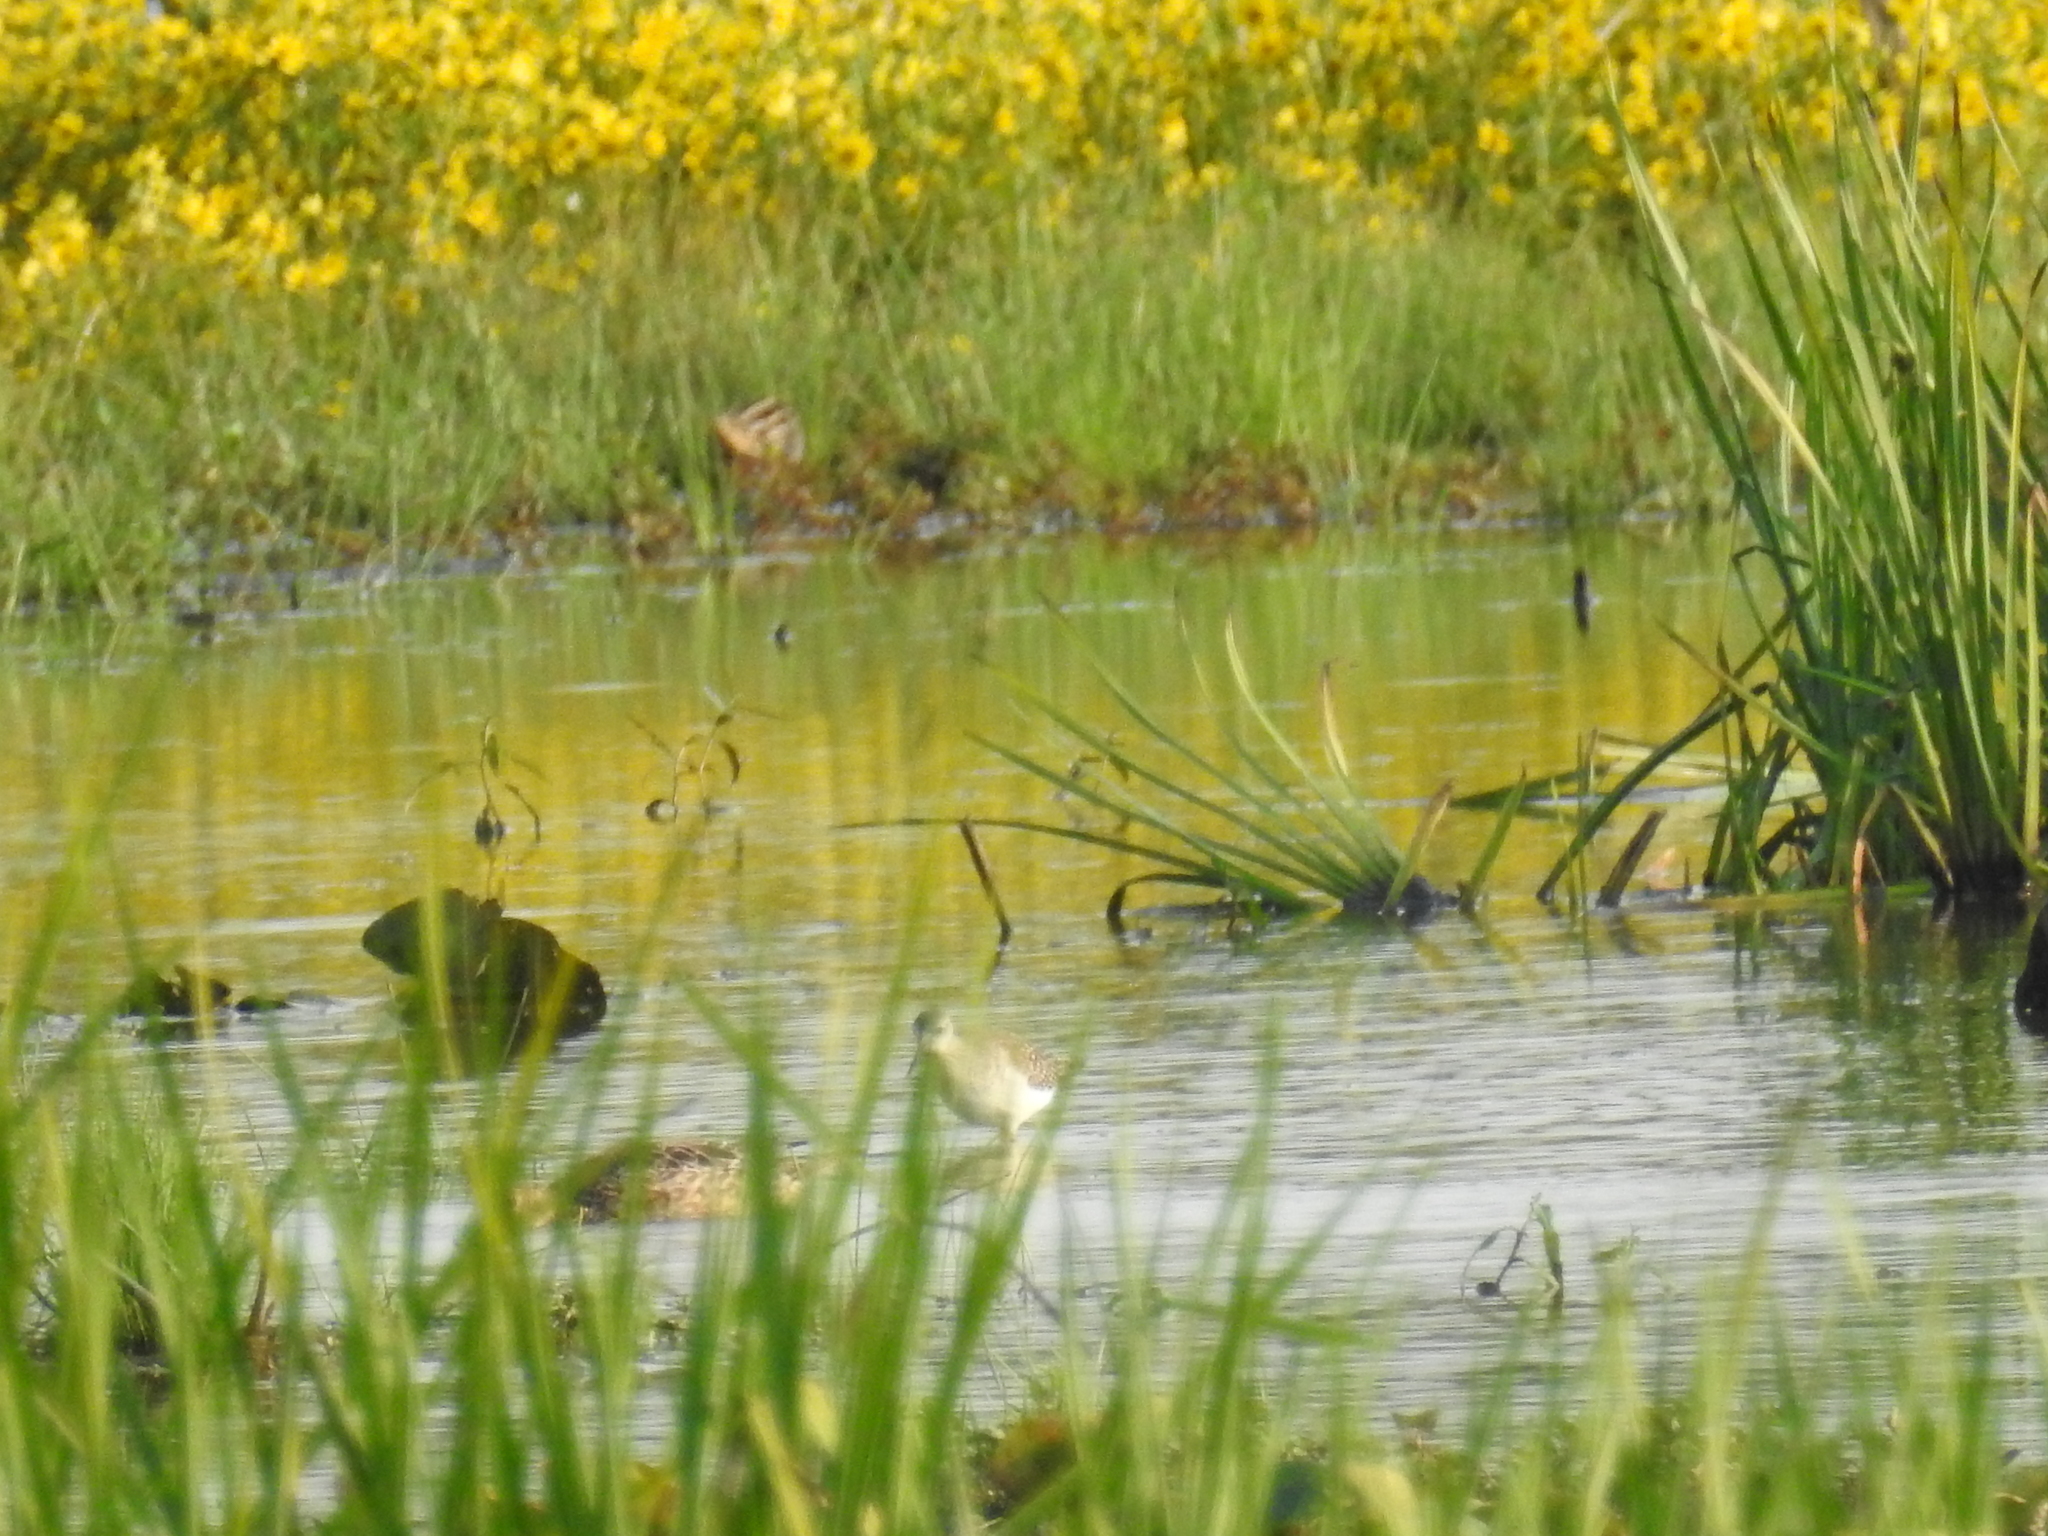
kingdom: Animalia
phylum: Chordata
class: Aves
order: Charadriiformes
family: Scolopacidae
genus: Gallinago
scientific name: Gallinago delicata
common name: Wilson's snipe
